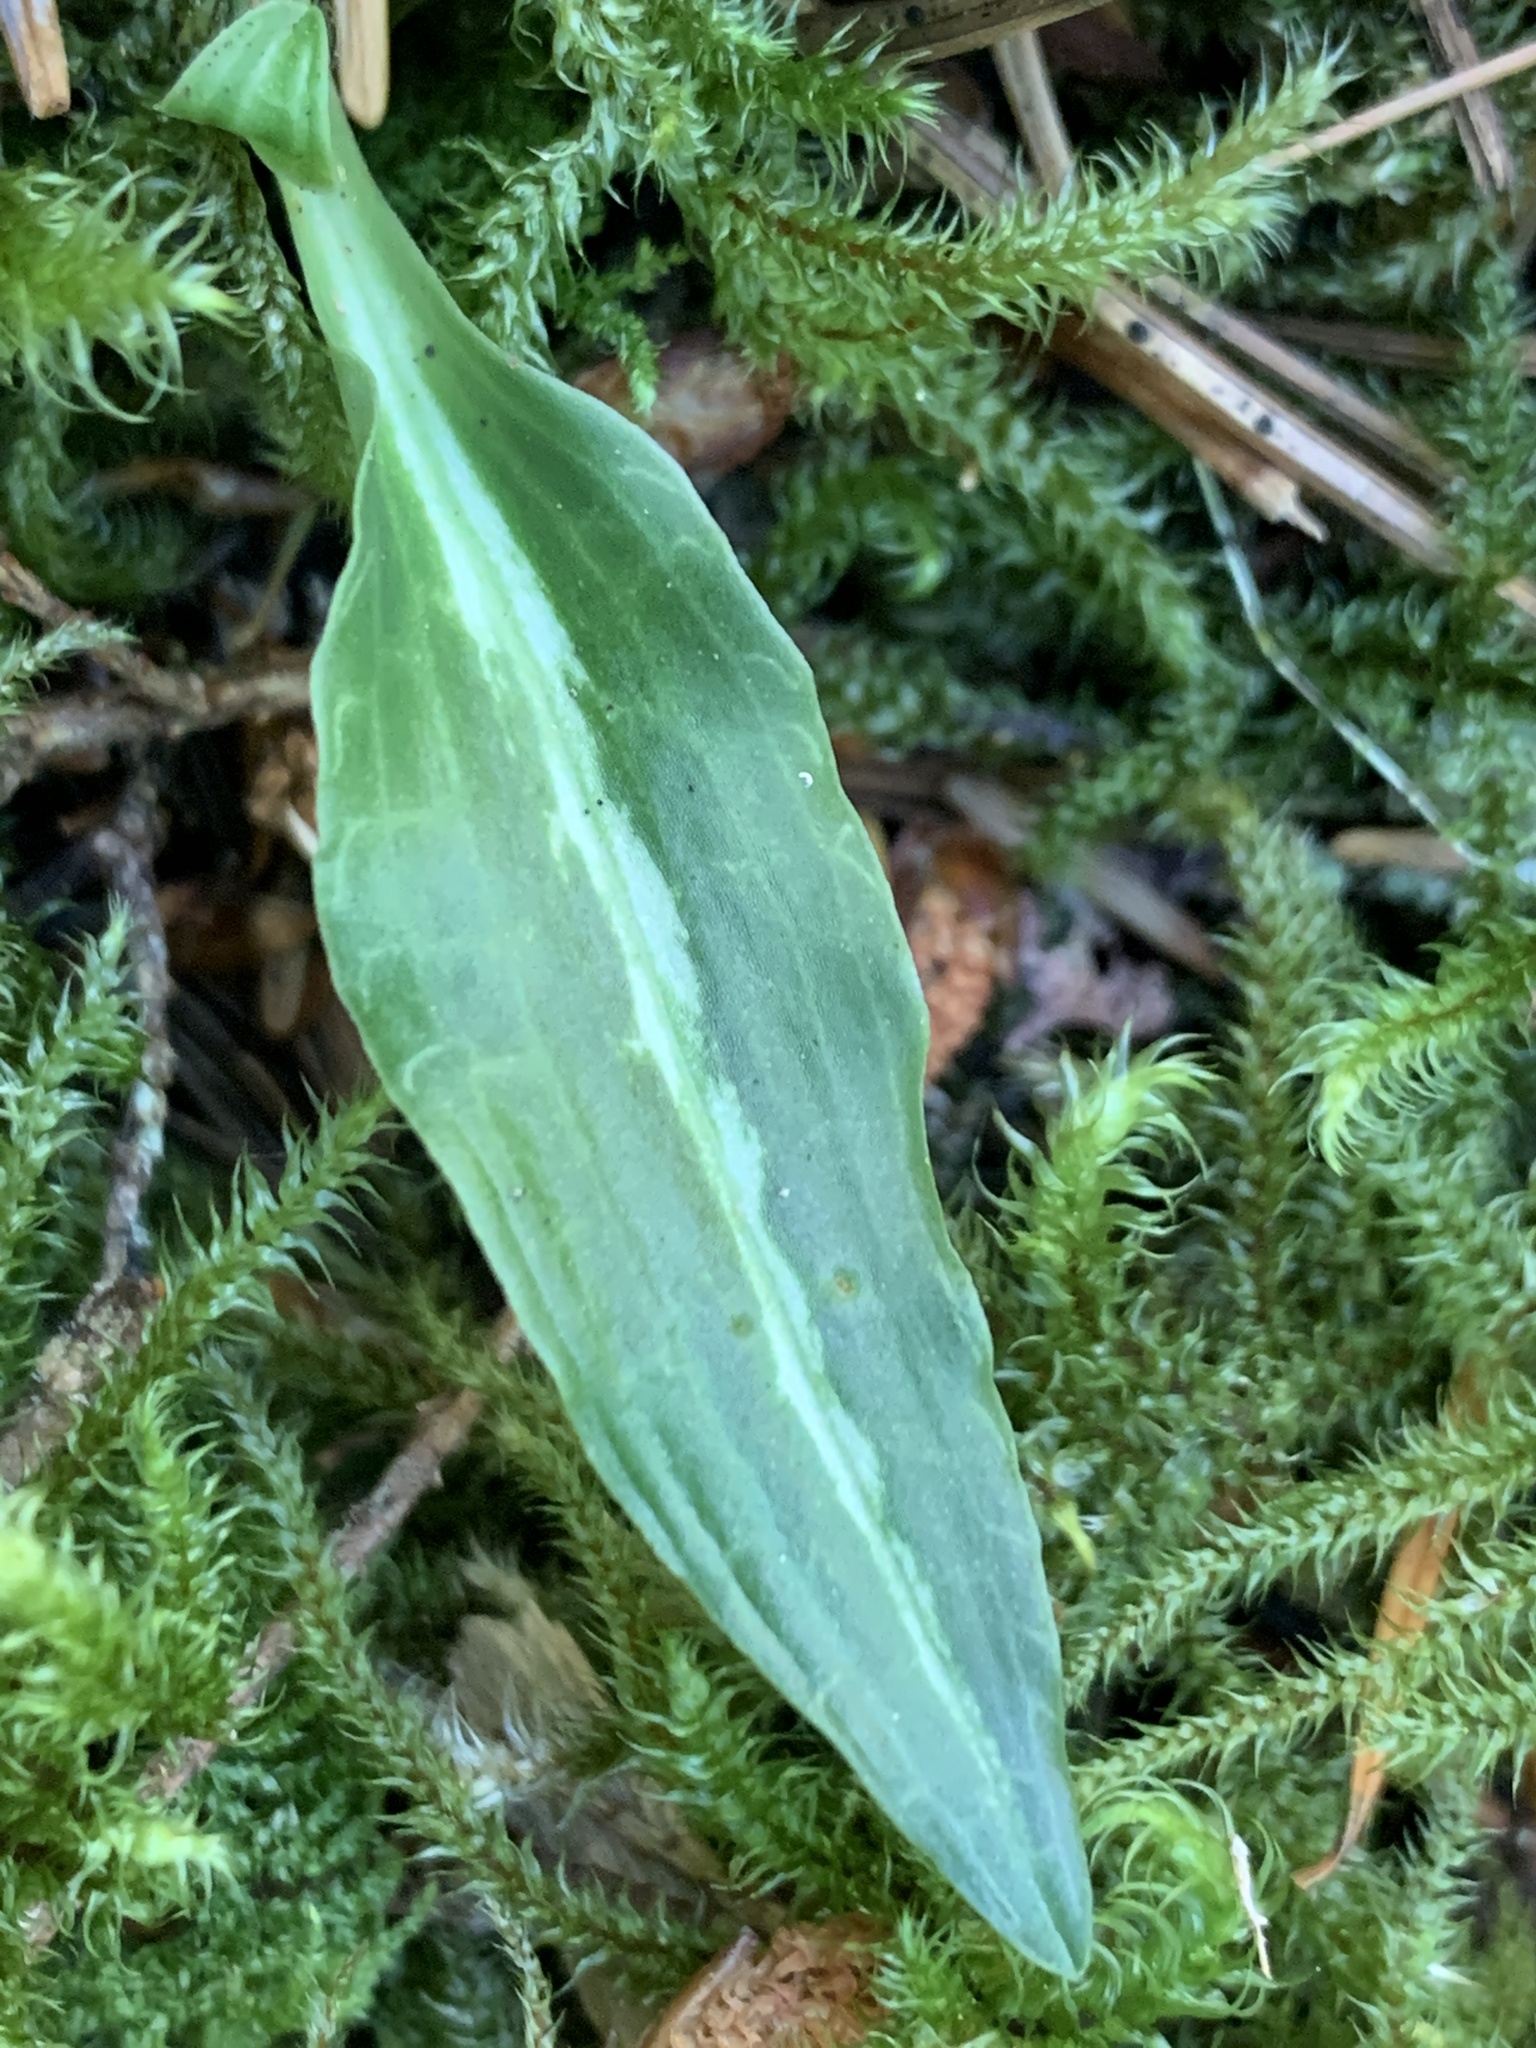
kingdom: Plantae
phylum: Tracheophyta
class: Liliopsida
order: Asparagales
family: Orchidaceae
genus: Goodyera
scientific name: Goodyera oblongifolia
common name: Giant rattlesnake-plantain
